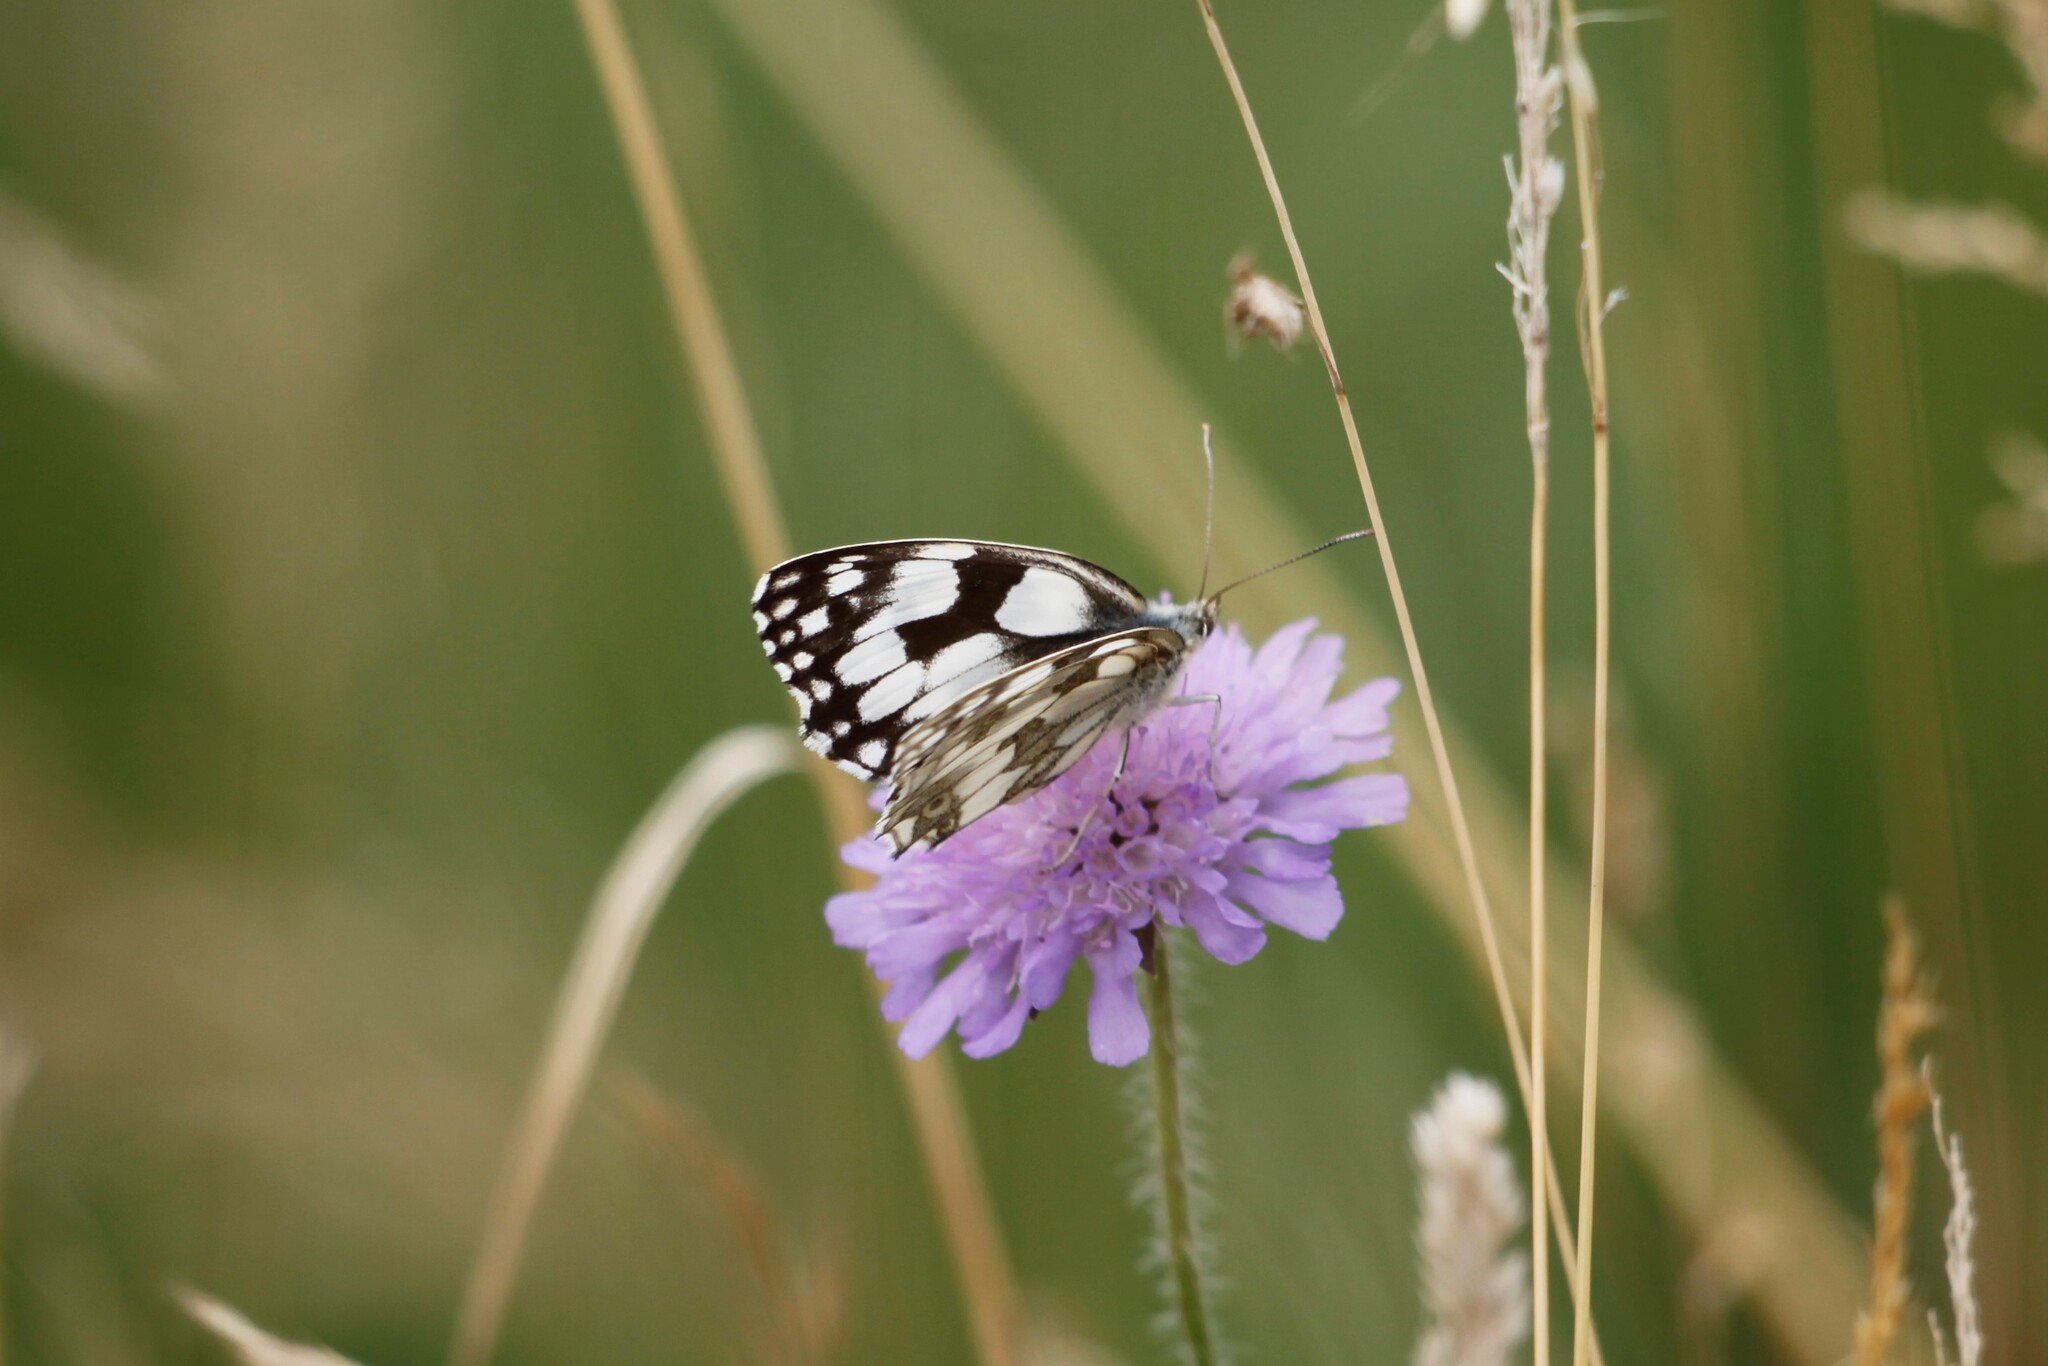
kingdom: Animalia
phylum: Arthropoda
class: Insecta
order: Lepidoptera
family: Nymphalidae
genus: Melanargia
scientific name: Melanargia galathea
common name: Marbled white
